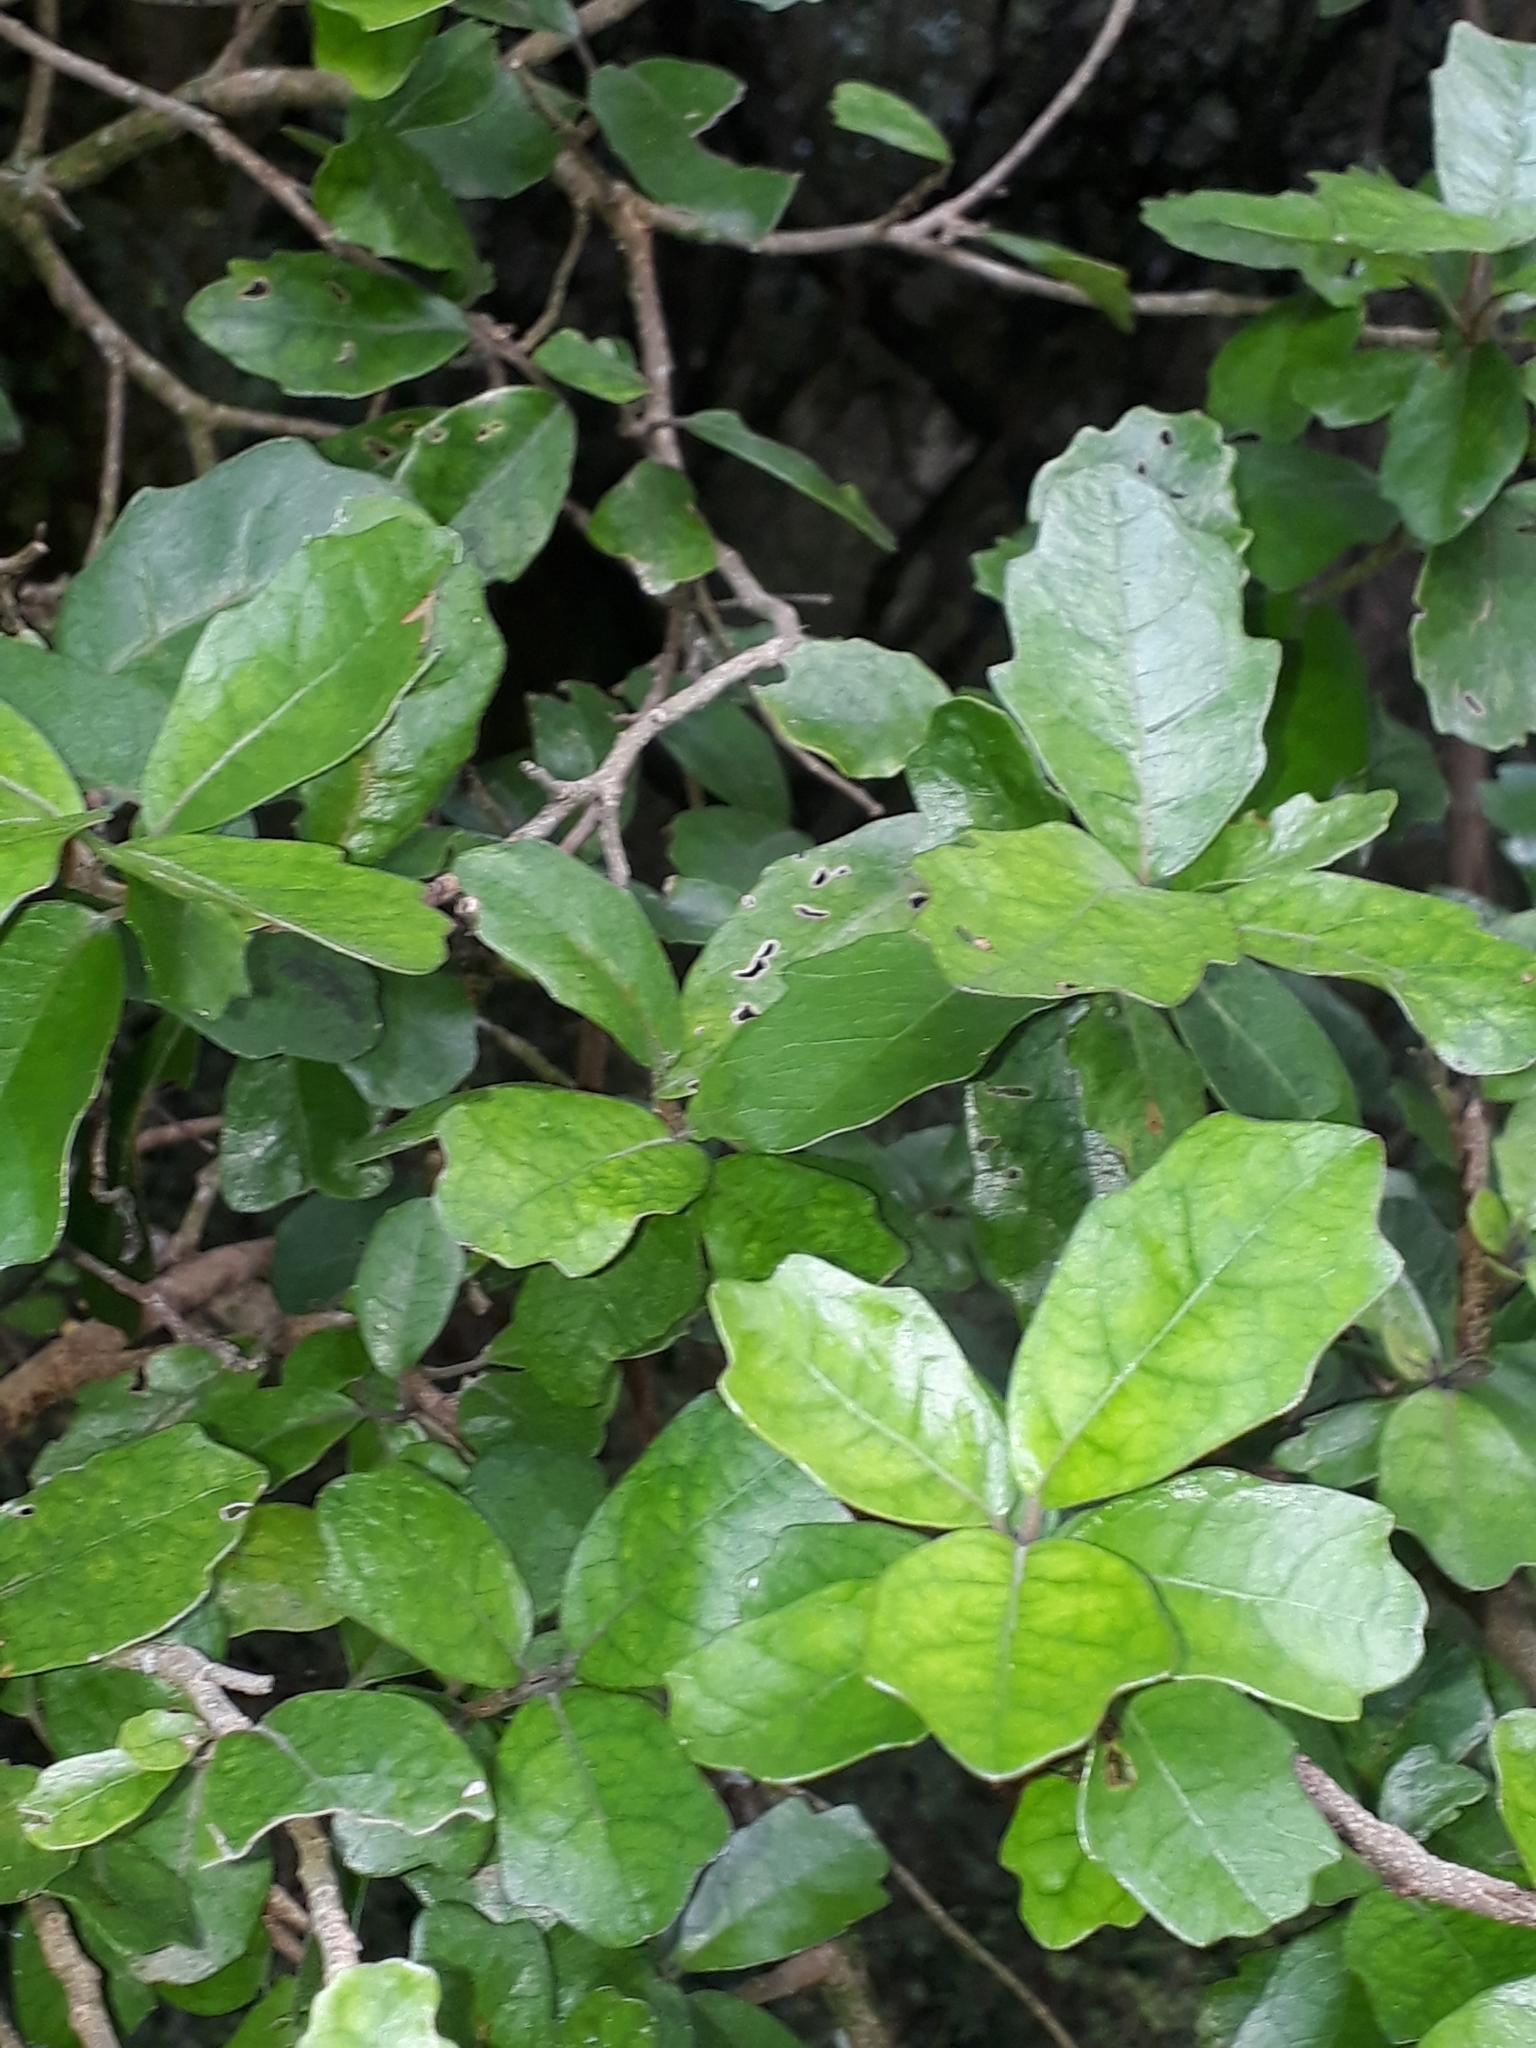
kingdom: Plantae
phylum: Tracheophyta
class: Magnoliopsida
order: Apiales
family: Pennantiaceae
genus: Pennantia
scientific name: Pennantia corymbosa
